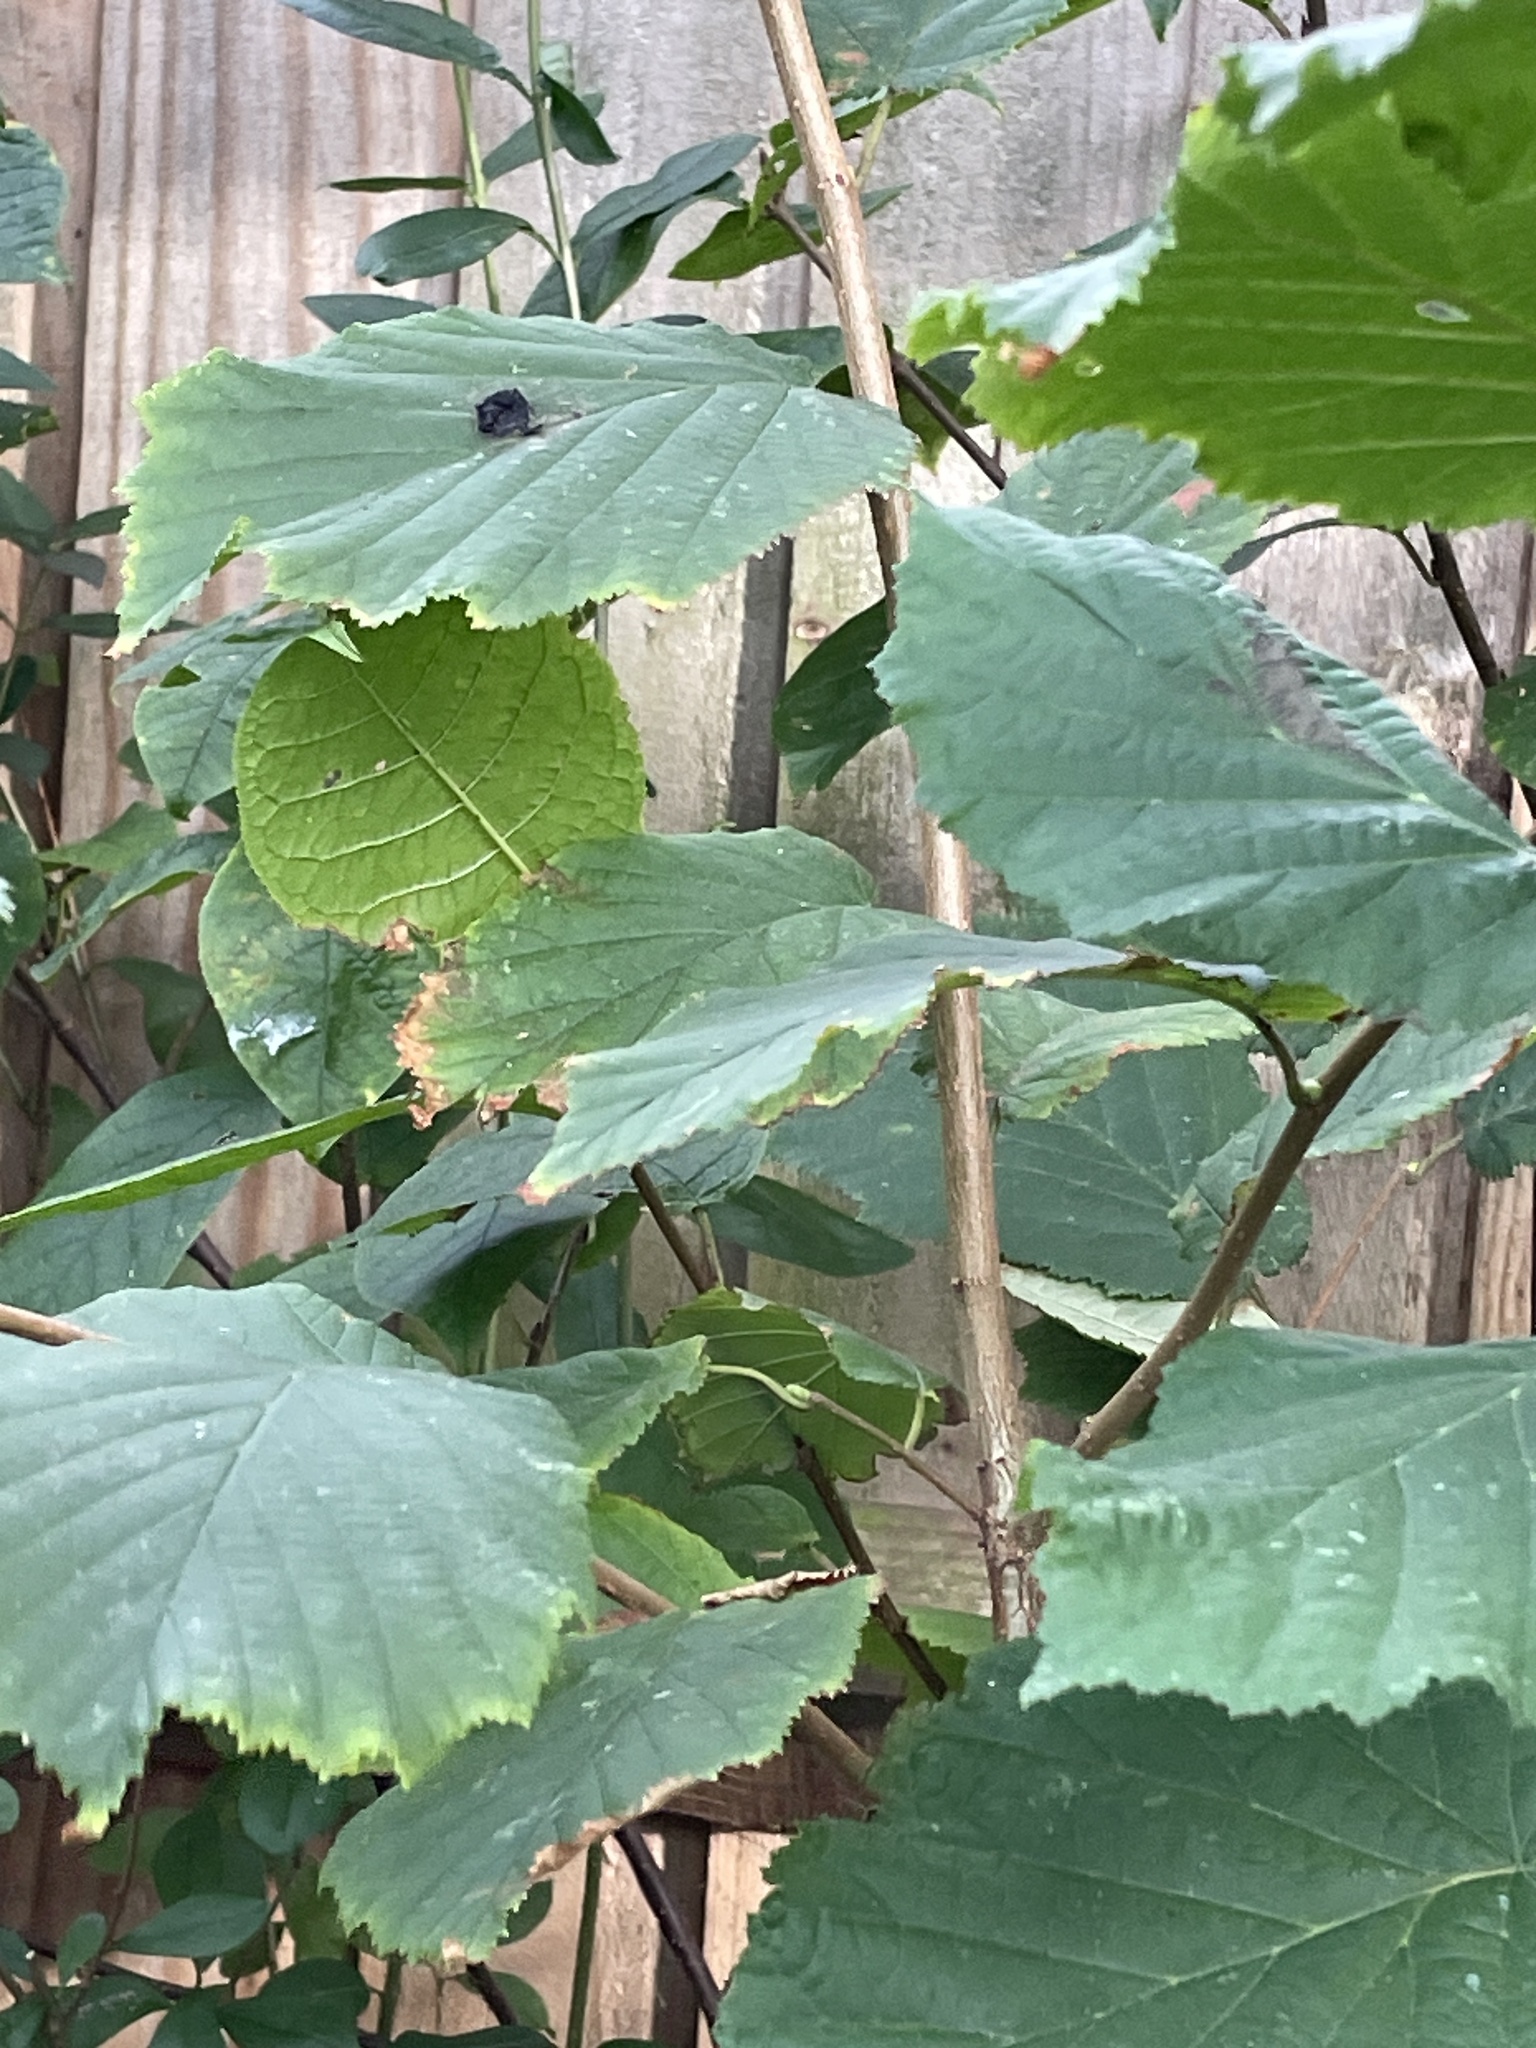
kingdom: Plantae
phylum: Tracheophyta
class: Magnoliopsida
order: Fagales
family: Betulaceae
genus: Corylus
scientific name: Corylus avellana
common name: European hazel
